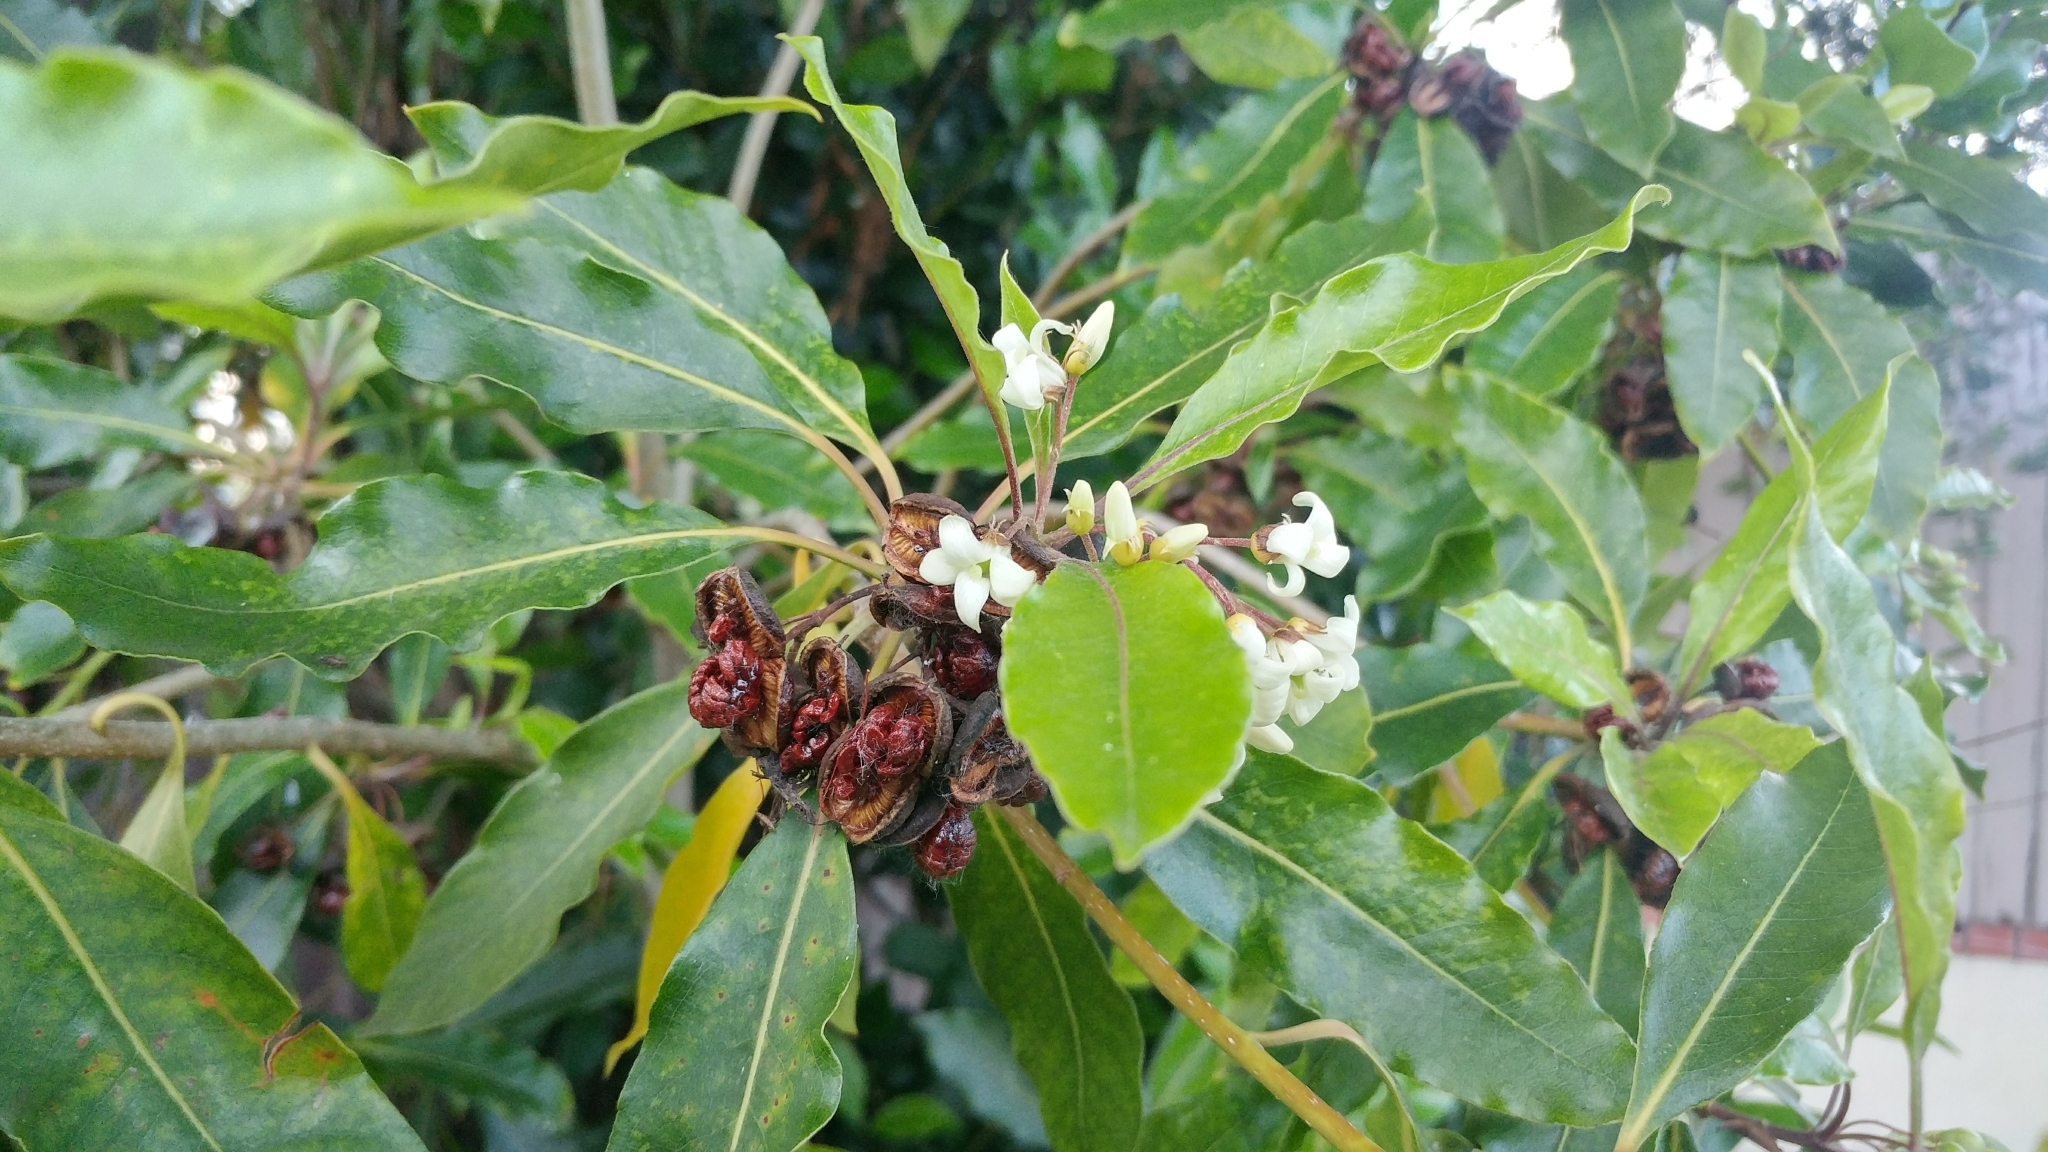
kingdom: Plantae
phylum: Tracheophyta
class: Magnoliopsida
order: Apiales
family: Pittosporaceae
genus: Pittosporum
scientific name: Pittosporum undulatum
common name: Australian cheesewood
